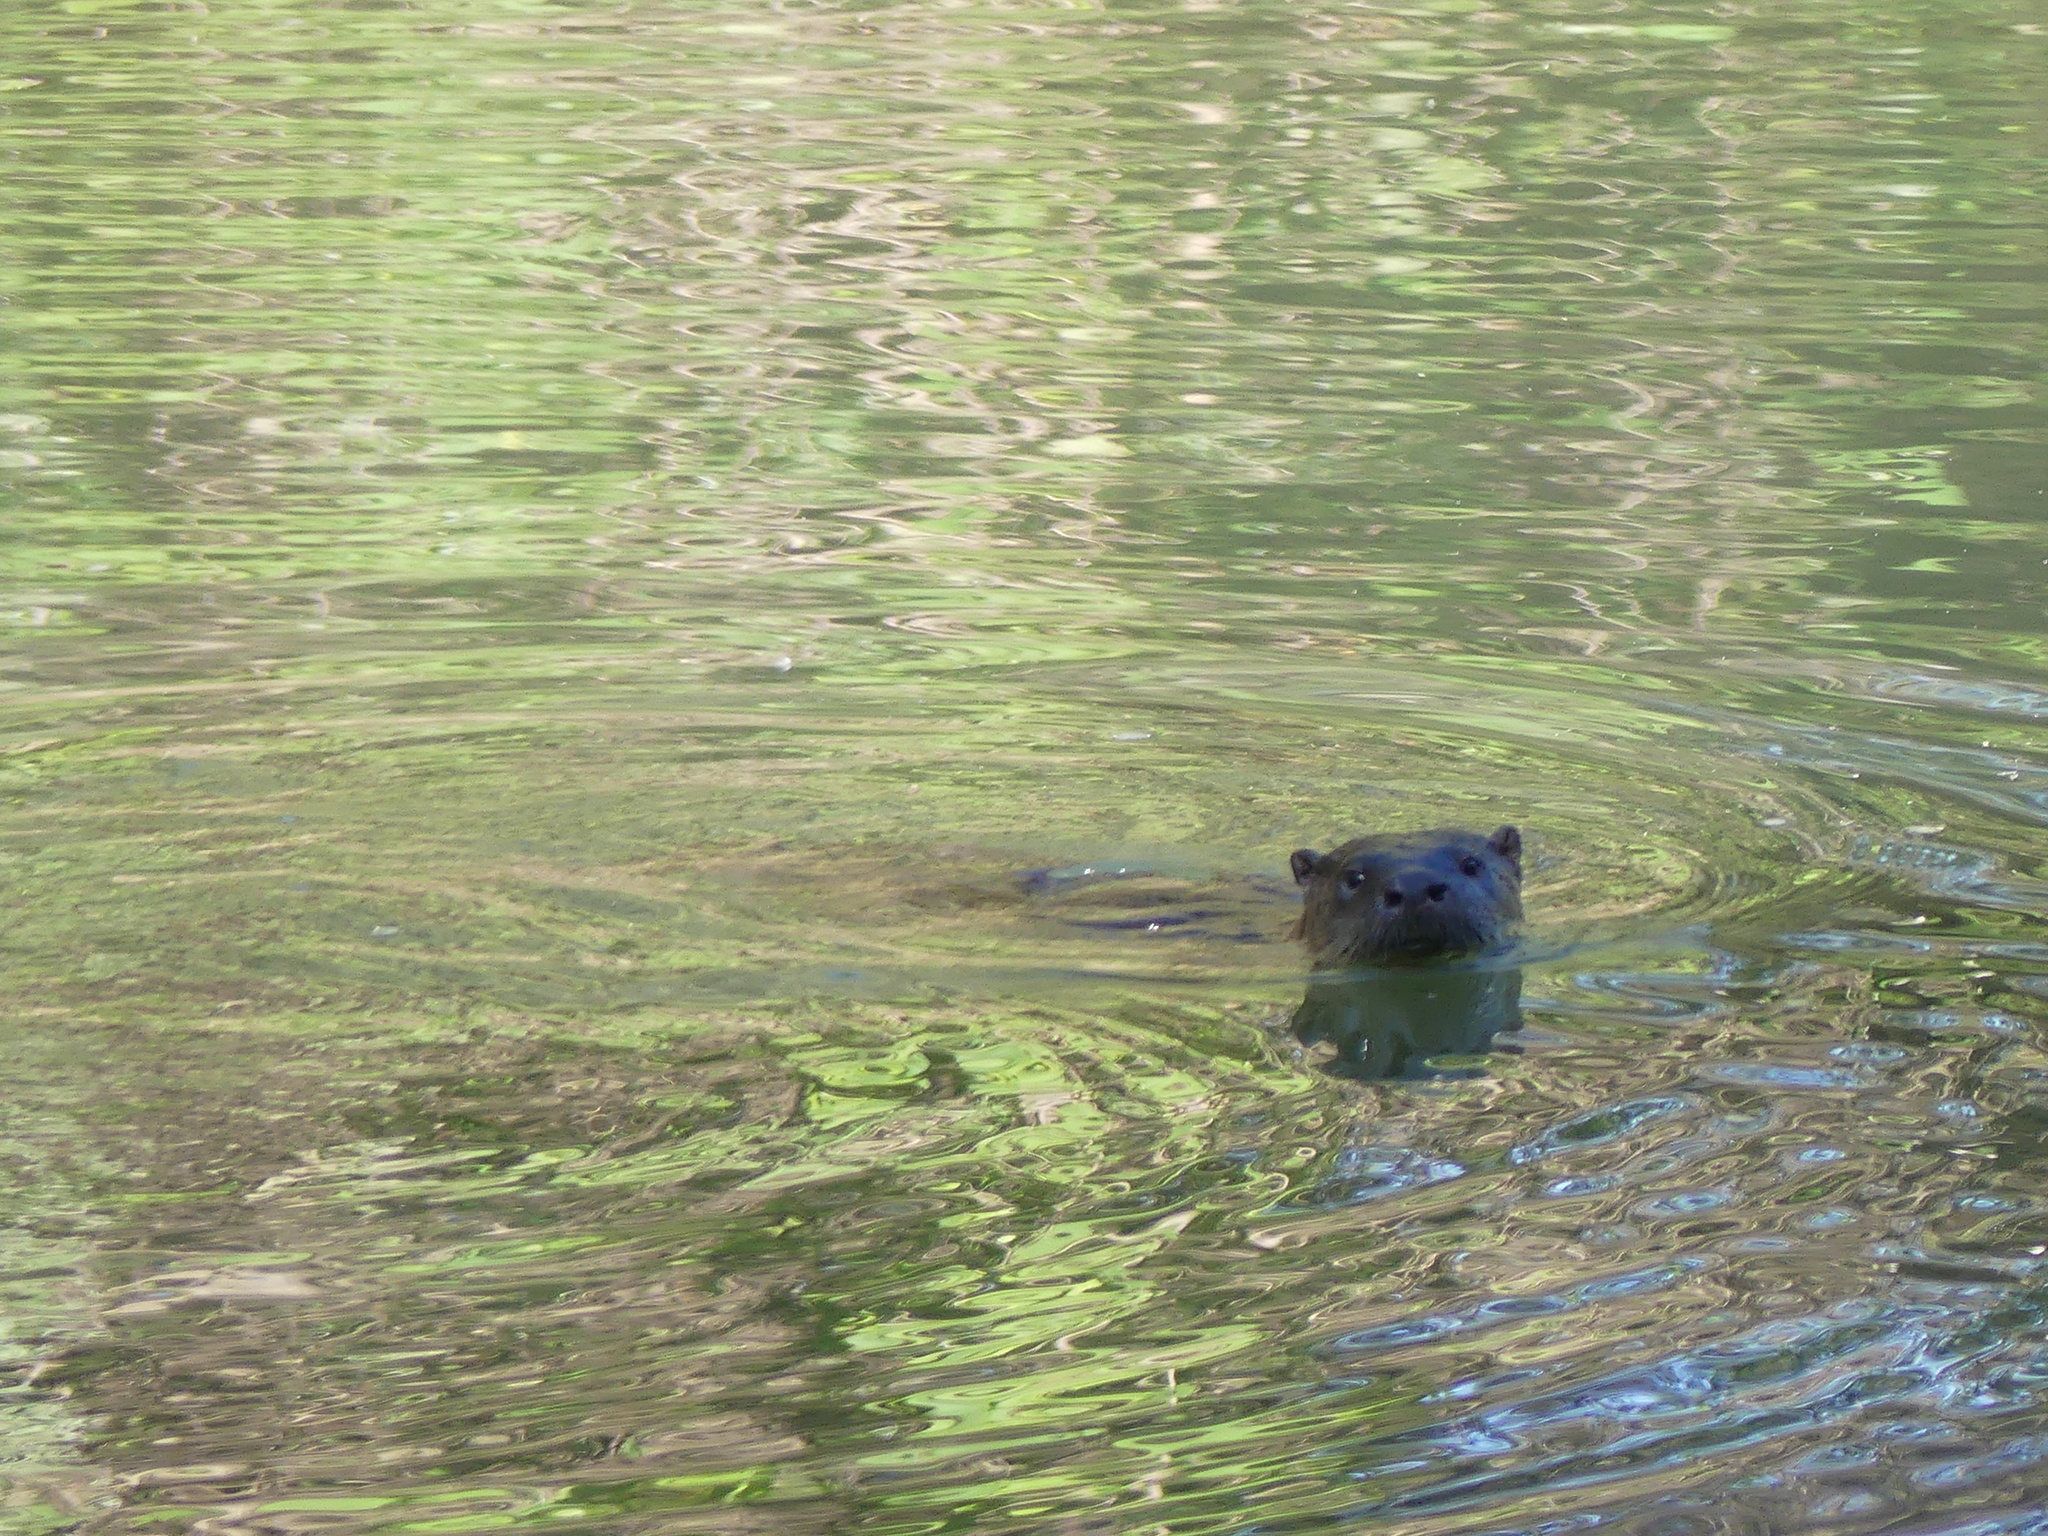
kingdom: Animalia
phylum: Chordata
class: Mammalia
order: Carnivora
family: Mustelidae
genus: Lontra
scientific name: Lontra canadensis
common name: North american river otter
